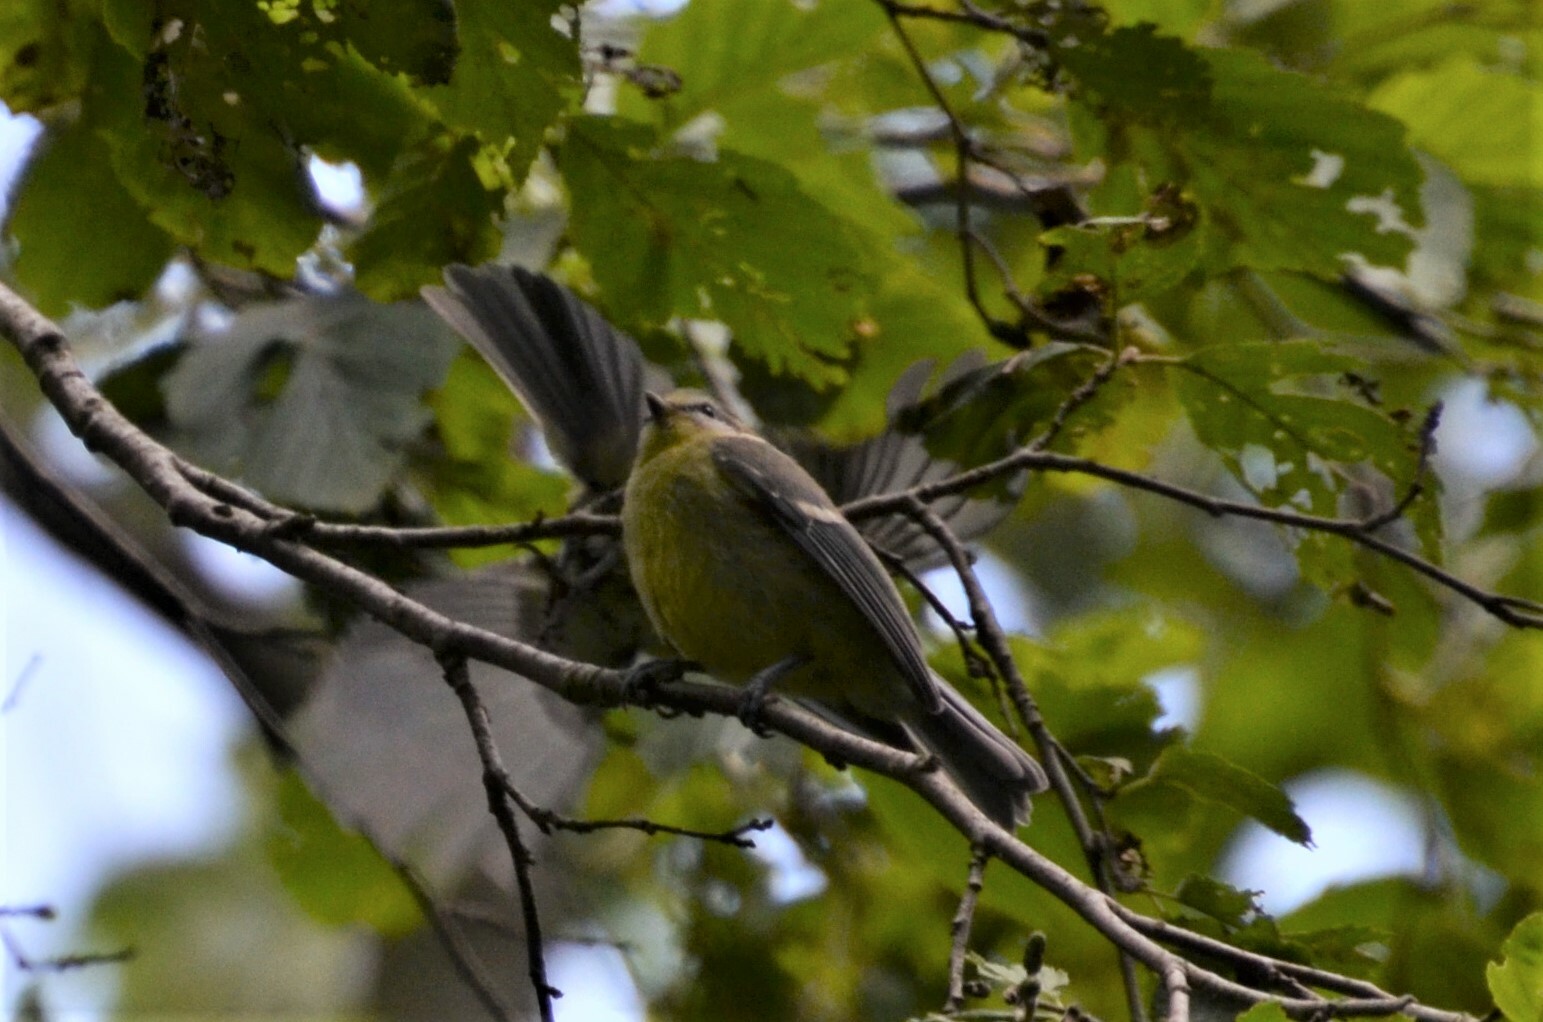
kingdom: Animalia
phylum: Chordata
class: Aves
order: Passeriformes
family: Paridae
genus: Cyanistes
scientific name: Cyanistes caeruleus
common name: Eurasian blue tit
